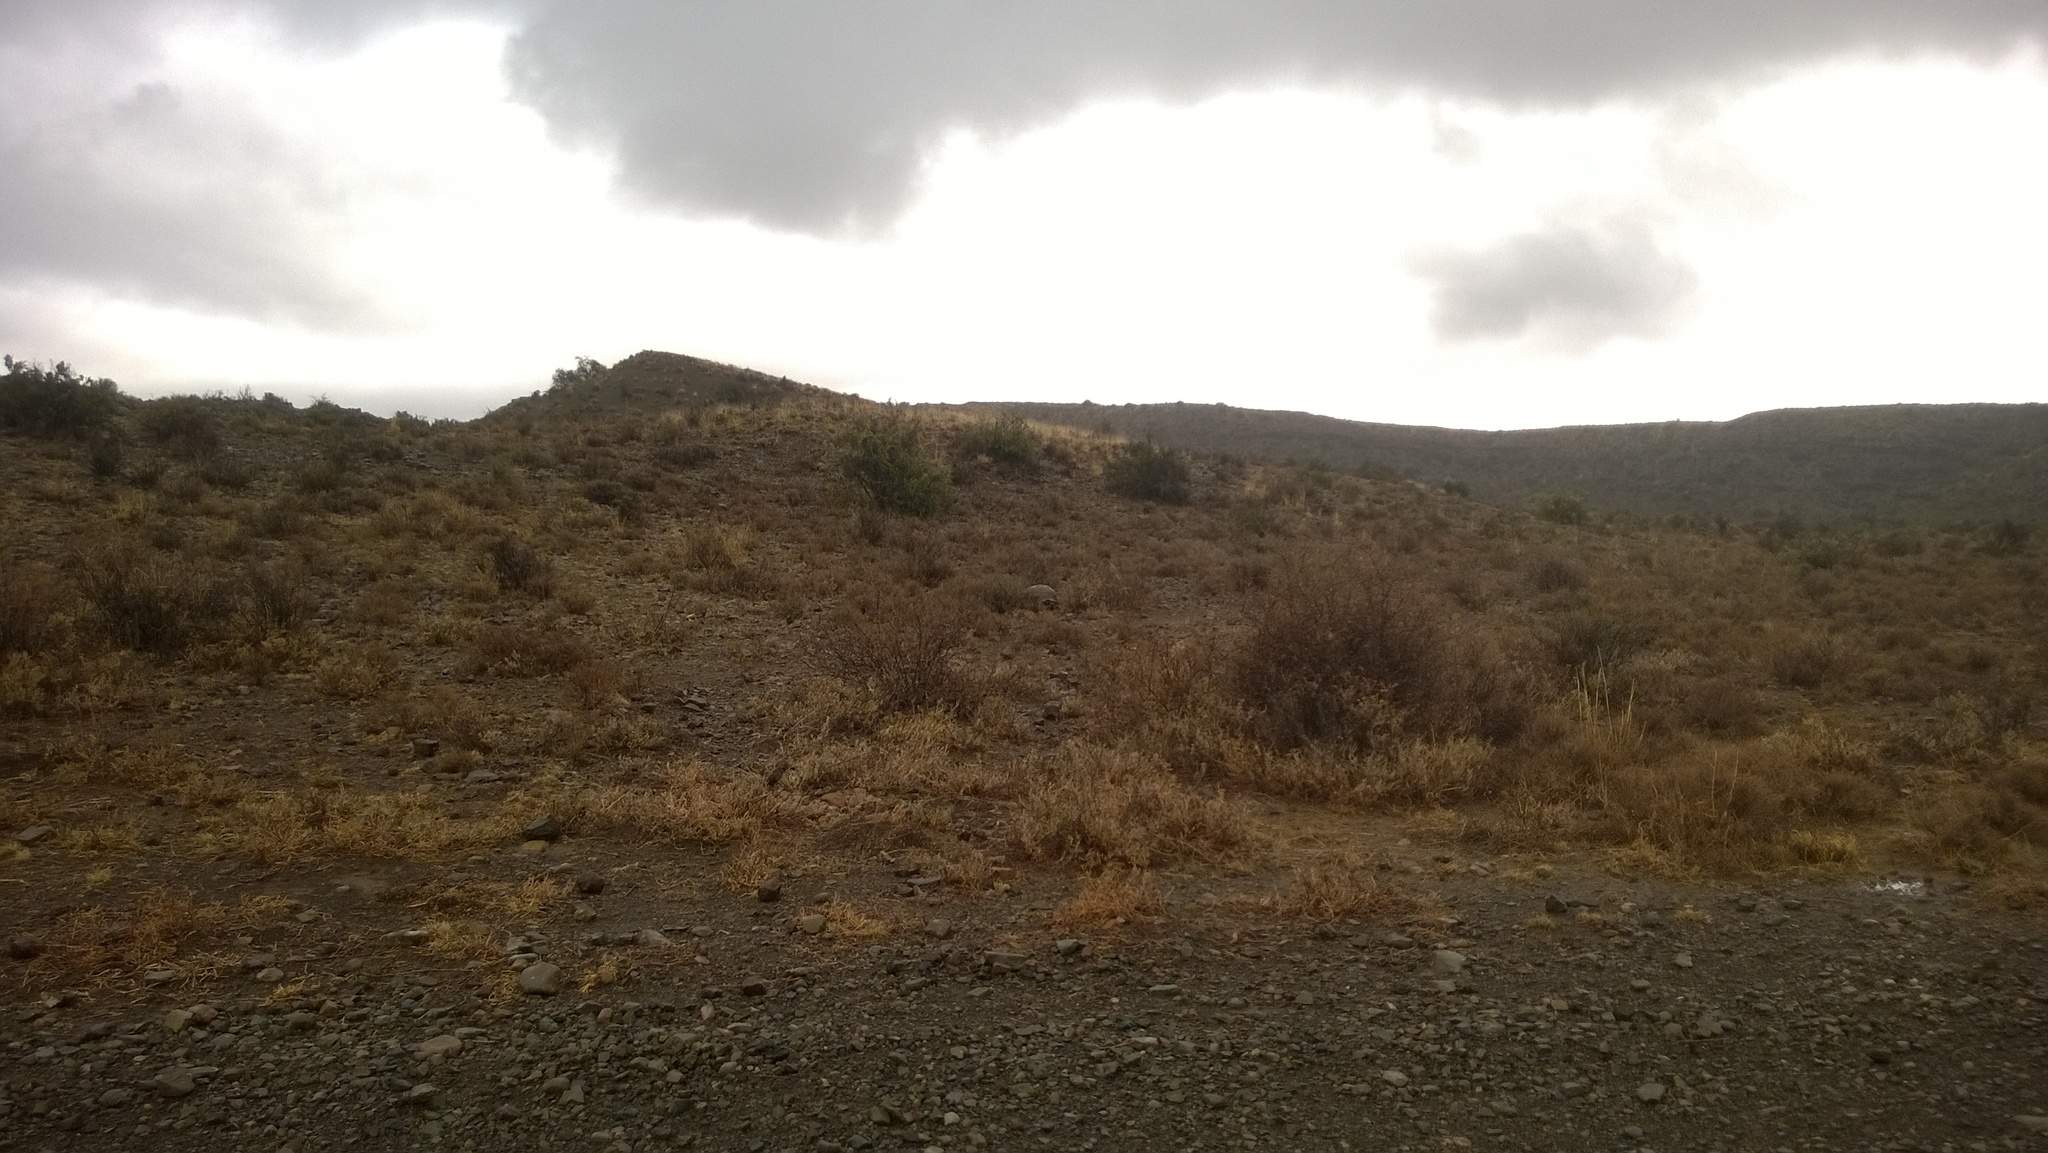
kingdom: Animalia
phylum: Chordata
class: Testudines
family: Testudinidae
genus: Stigmochelys
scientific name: Stigmochelys pardalis
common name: Leopard tortoise
